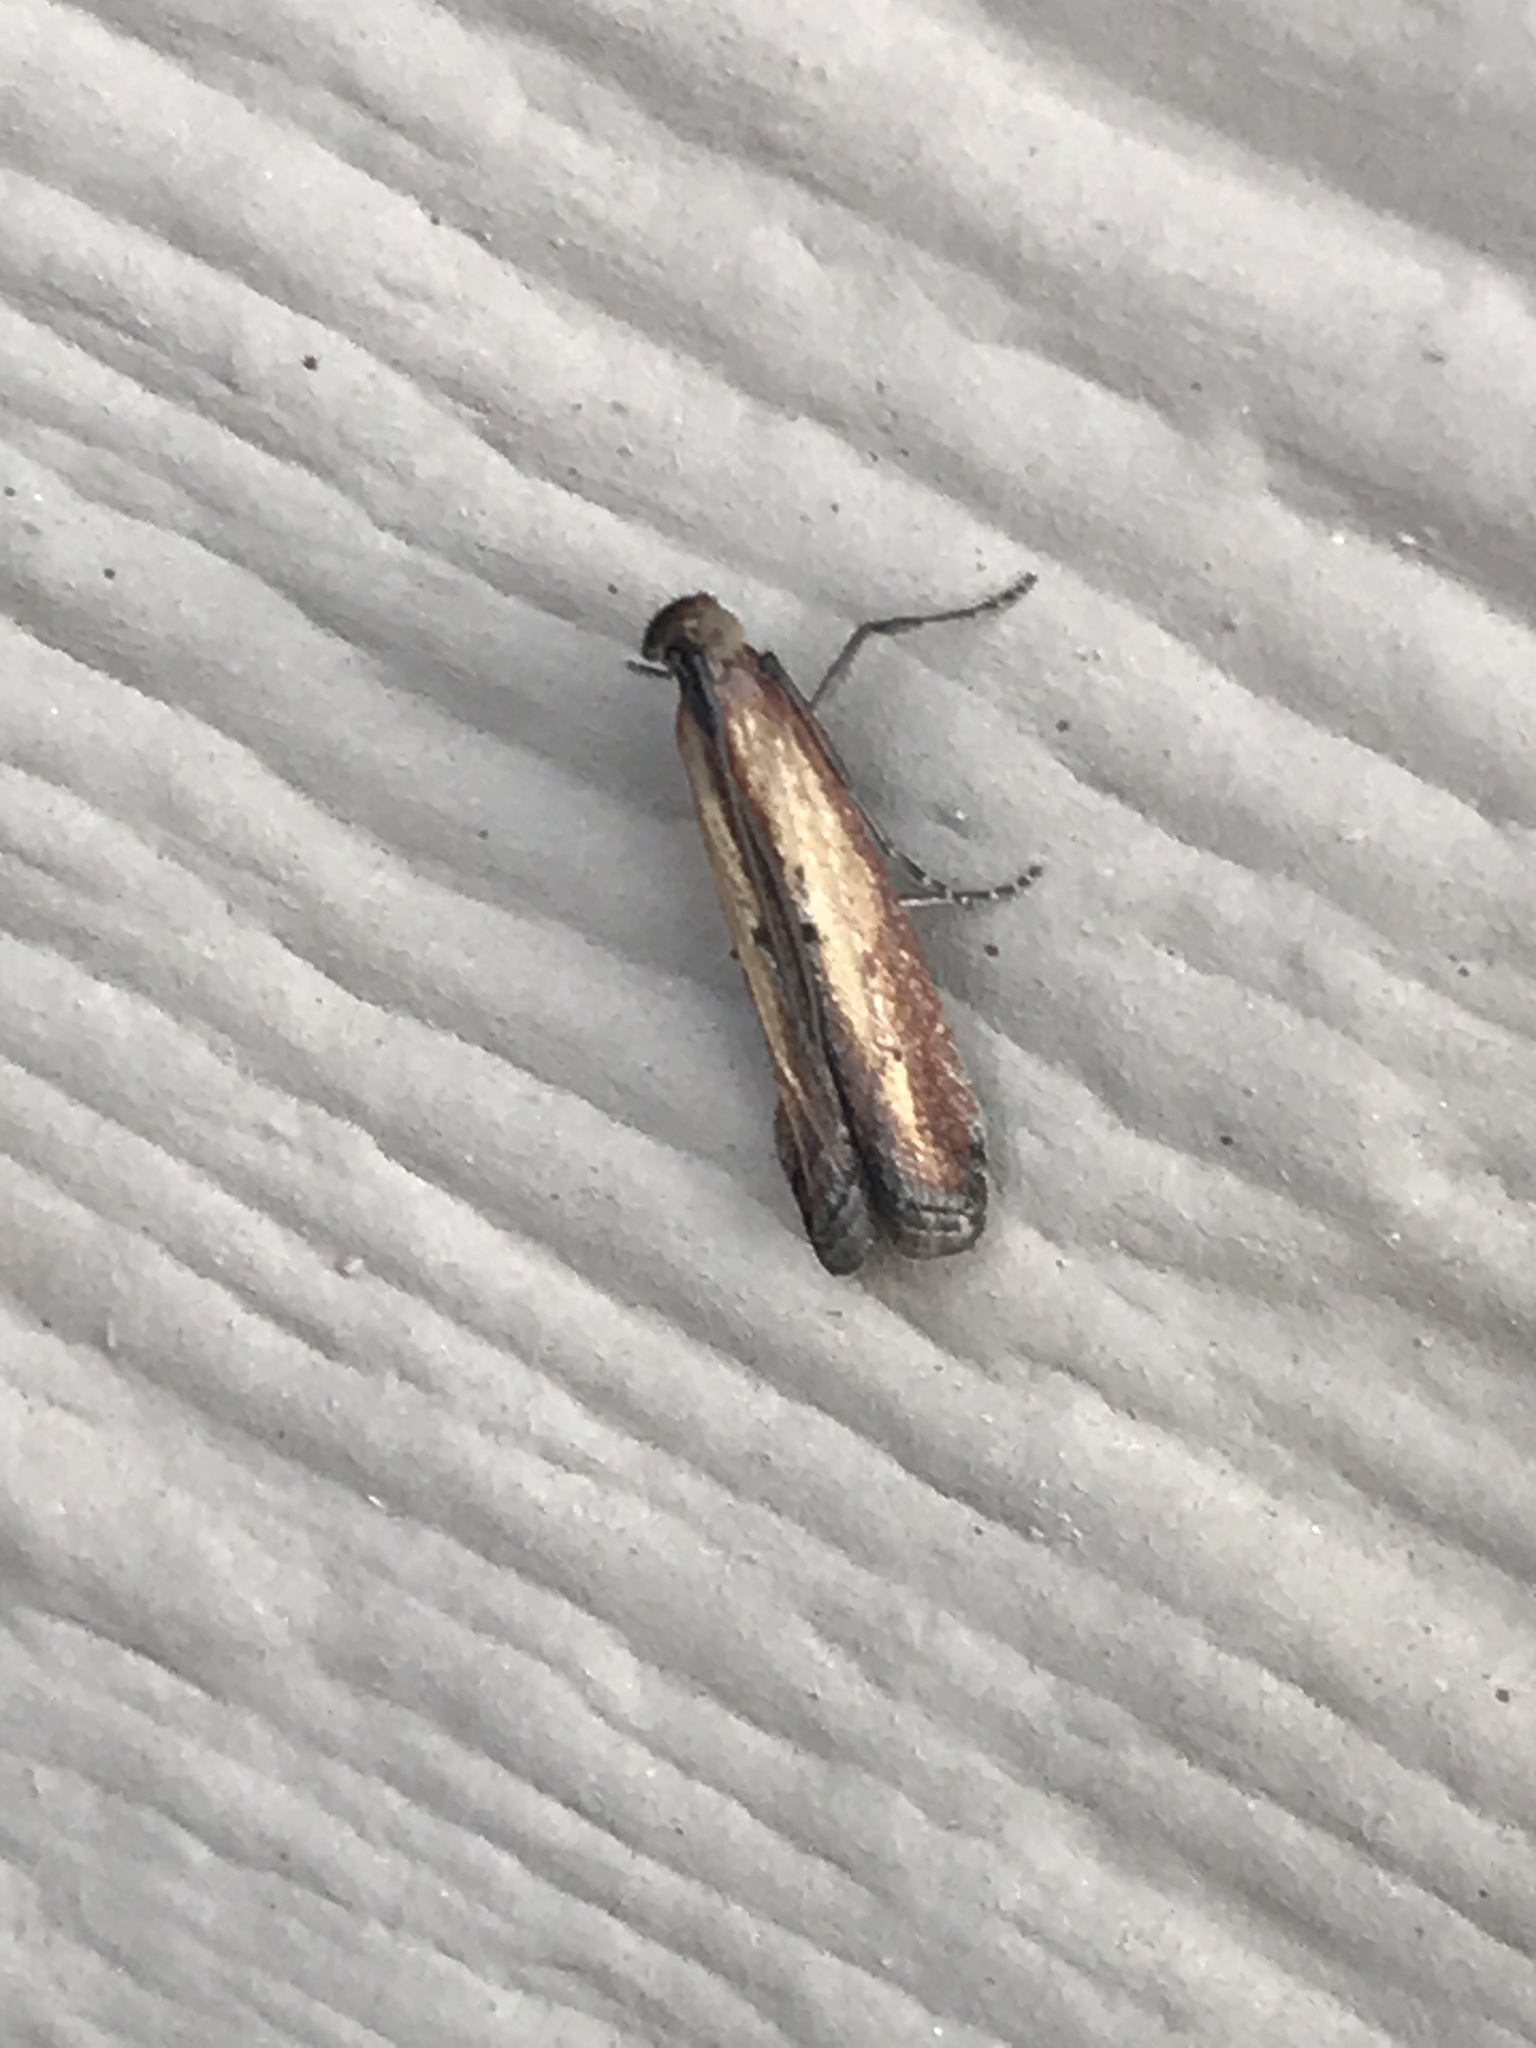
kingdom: Animalia
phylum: Arthropoda
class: Insecta
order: Lepidoptera
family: Pyralidae
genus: Elasmopalpus
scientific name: Elasmopalpus lignosella
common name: Lesser cornstalk borer
